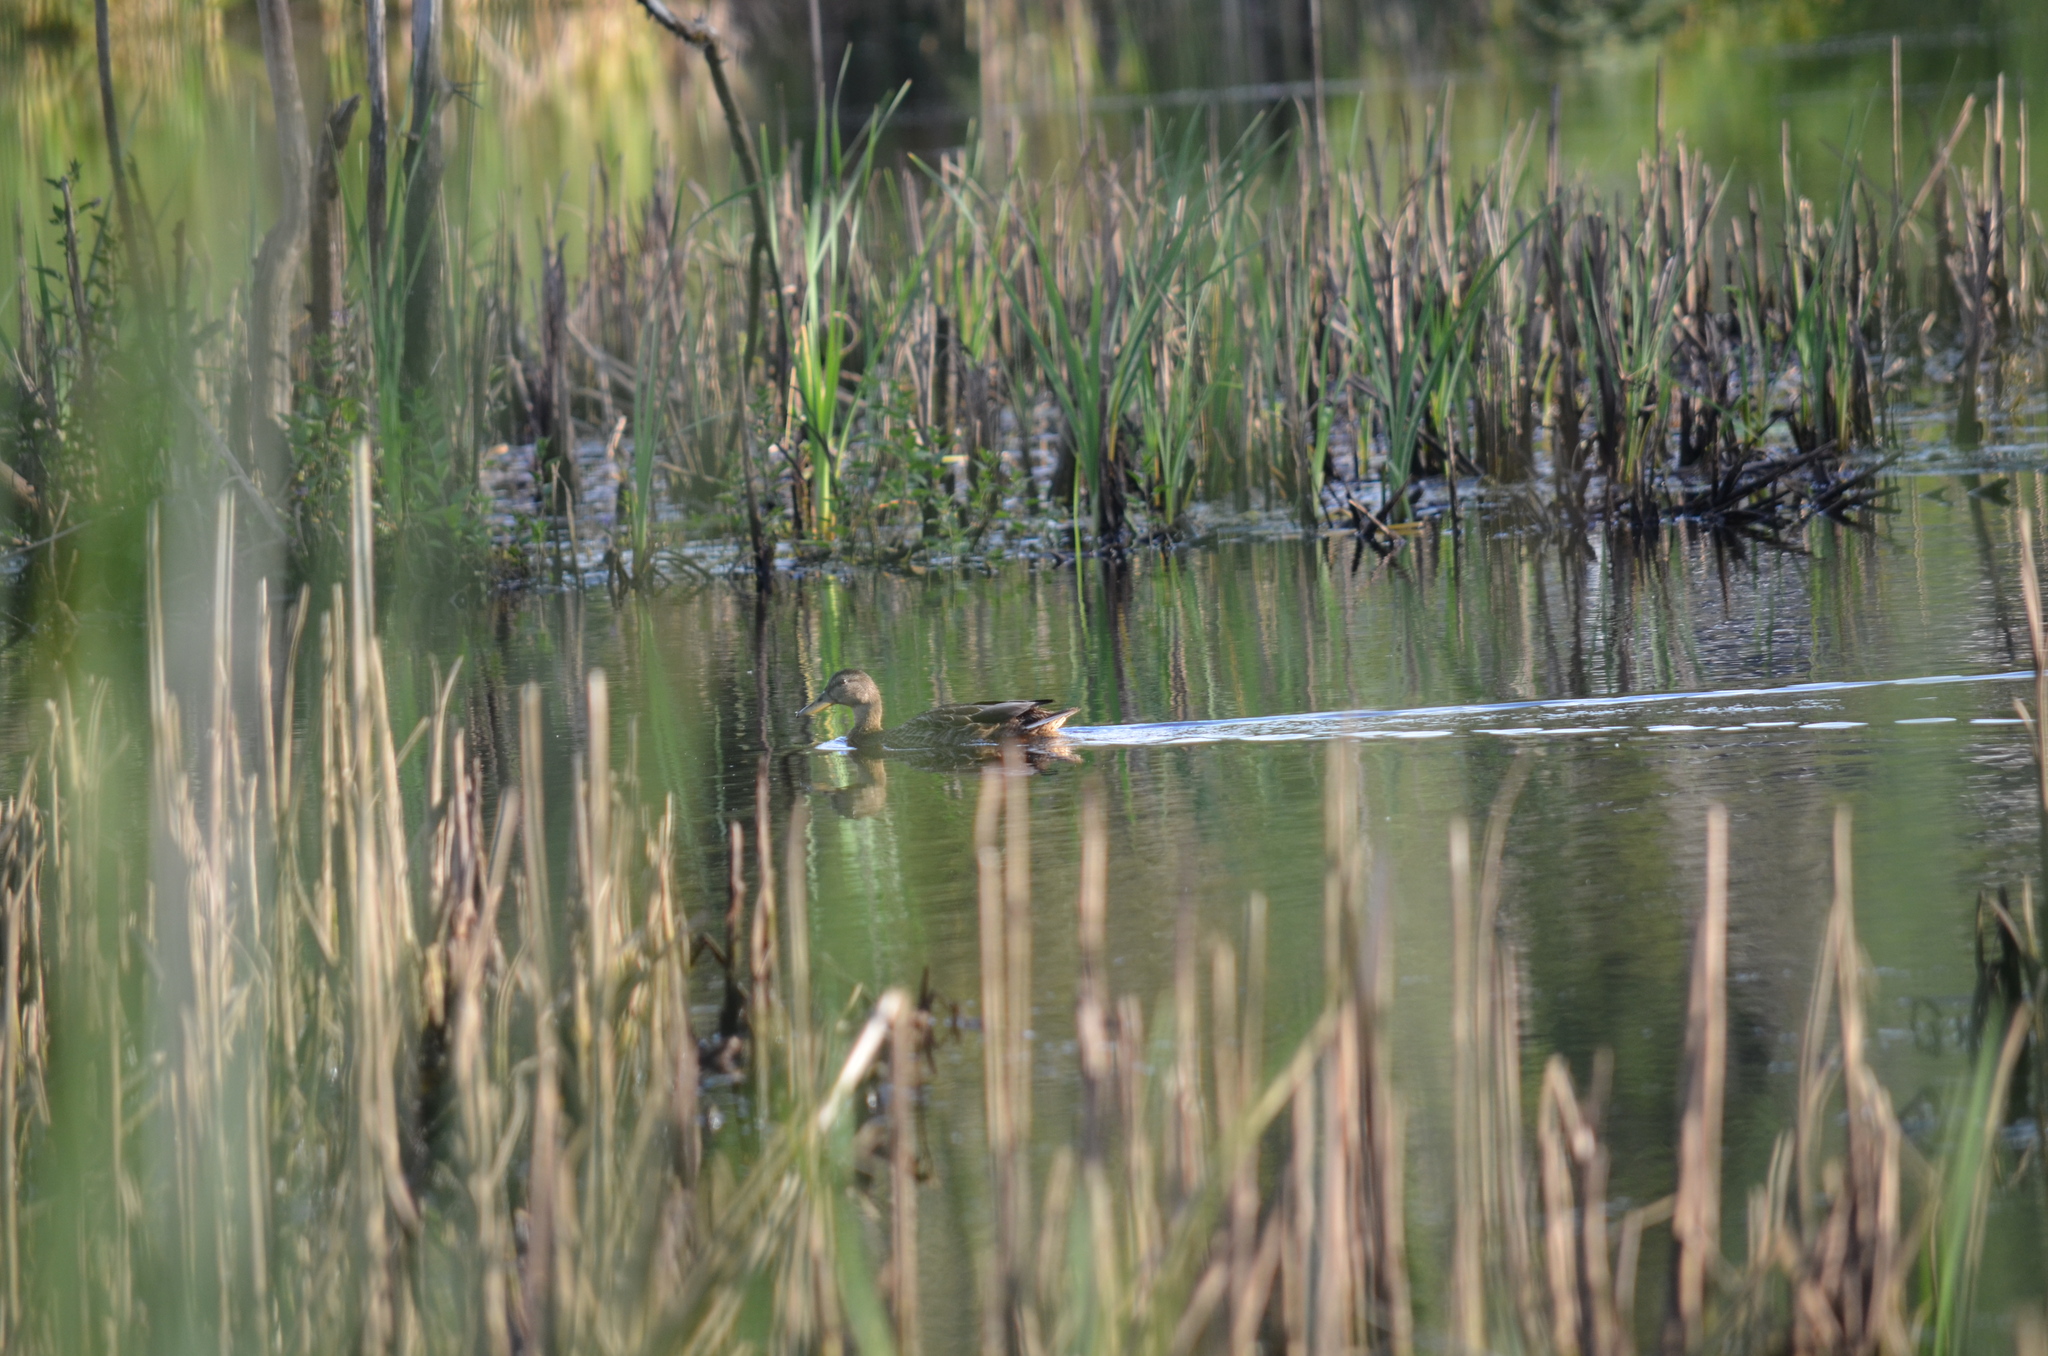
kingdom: Animalia
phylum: Chordata
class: Aves
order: Anseriformes
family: Anatidae
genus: Anas
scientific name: Anas platyrhynchos
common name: Mallard
